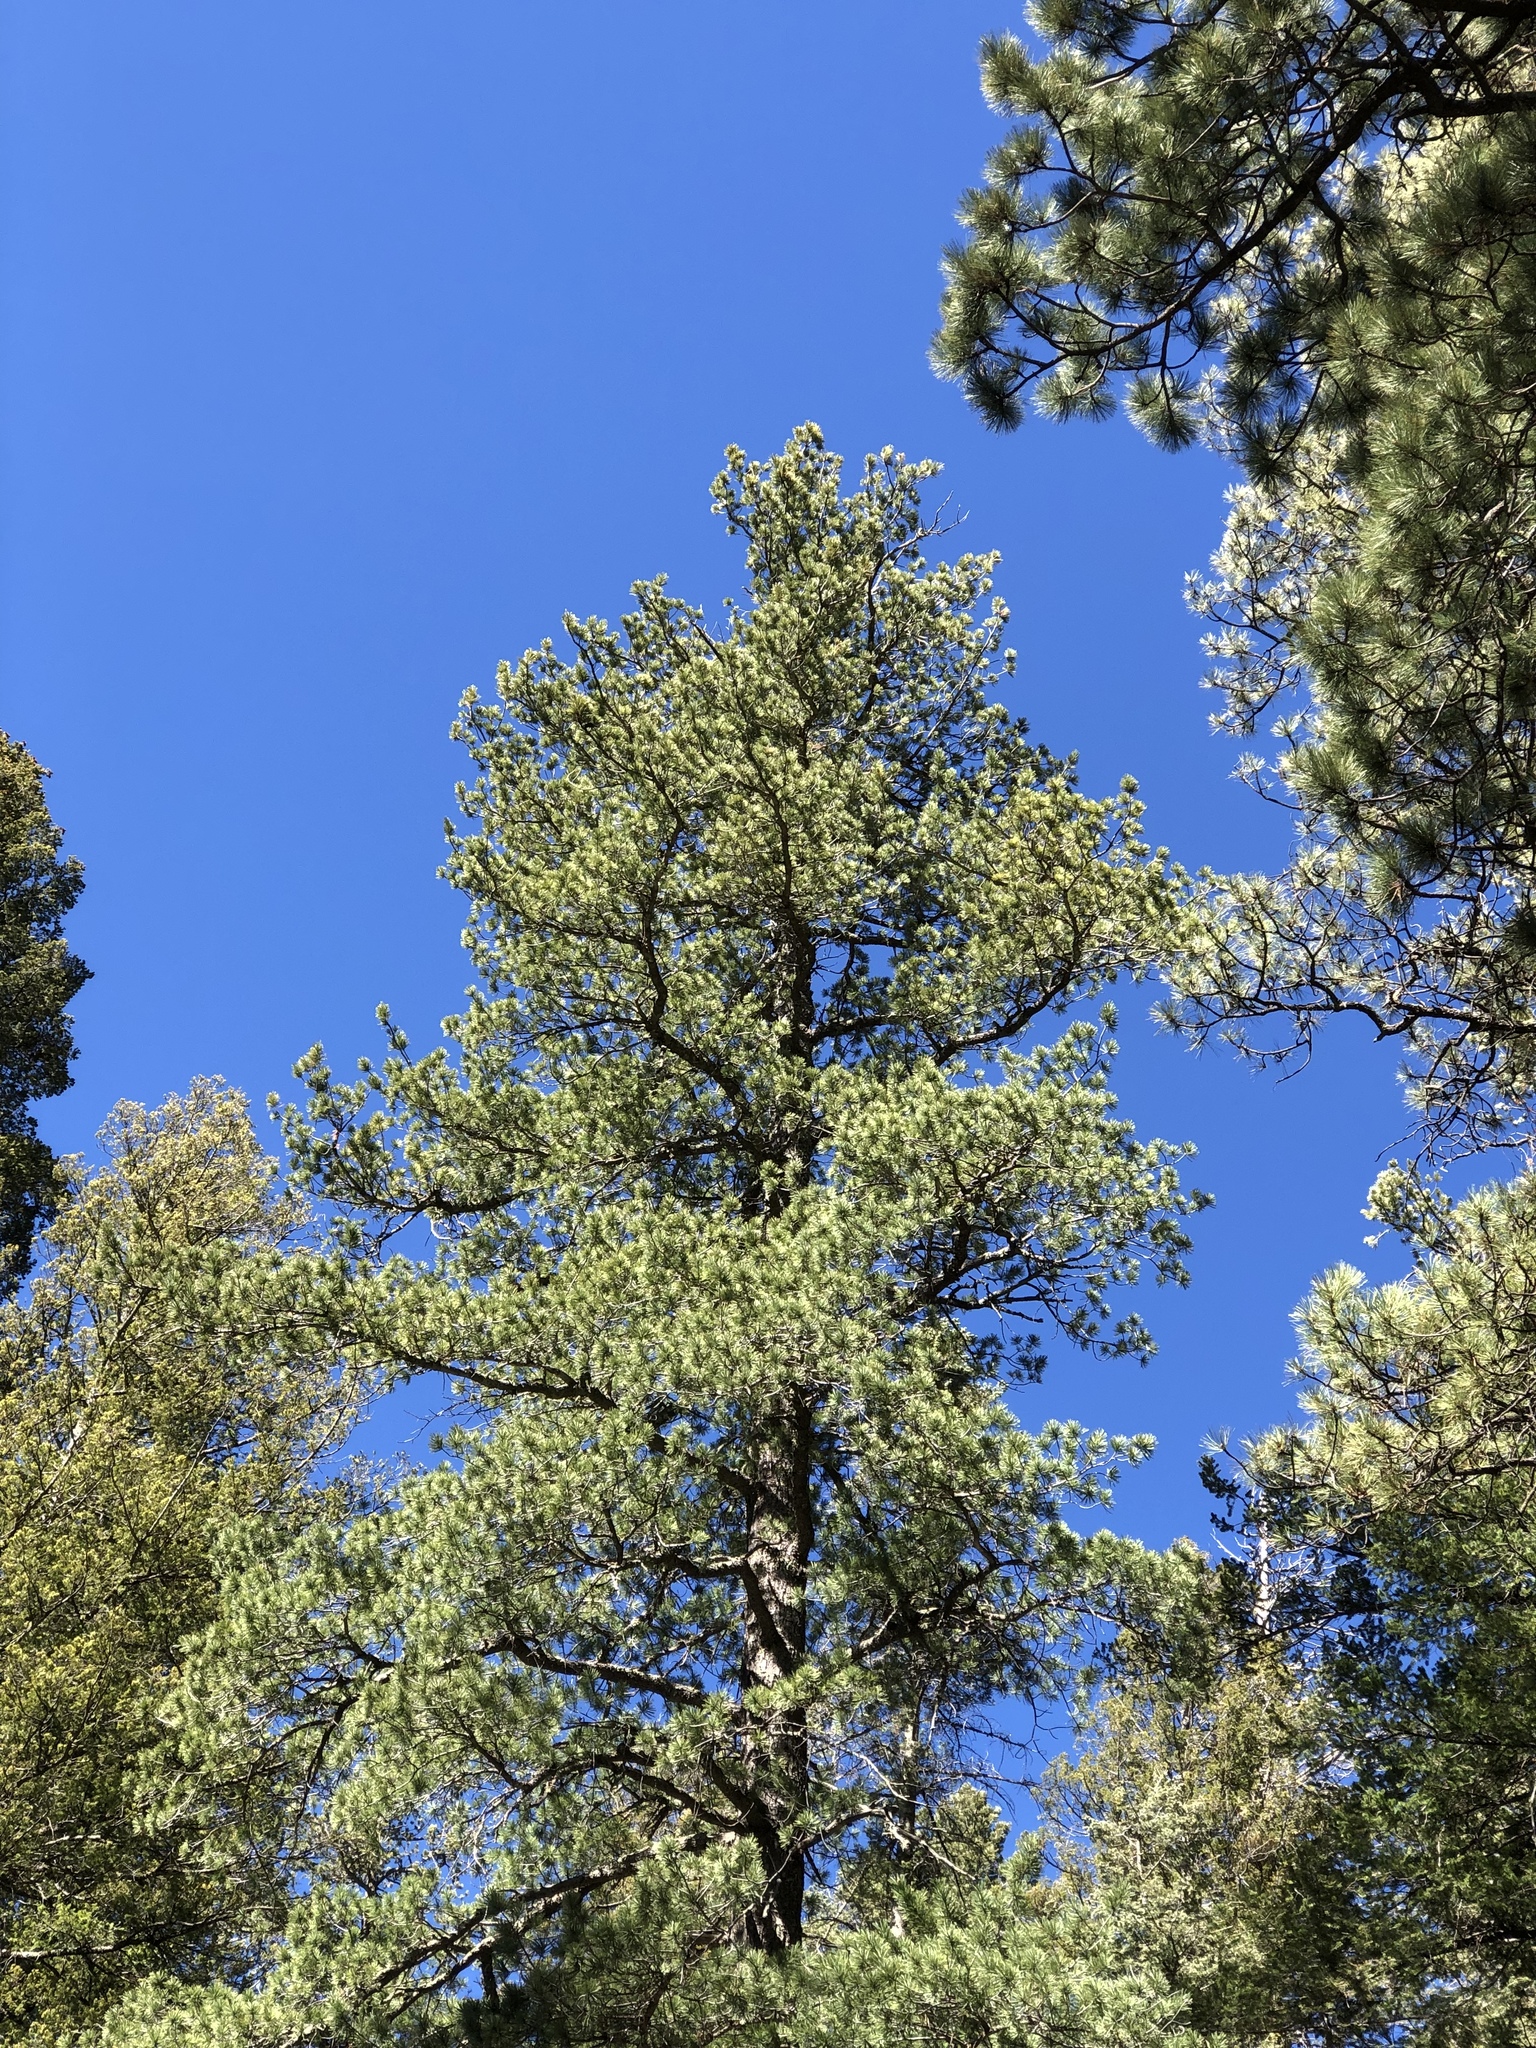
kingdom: Plantae
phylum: Tracheophyta
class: Pinopsida
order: Pinales
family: Pinaceae
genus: Pinus
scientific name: Pinus strobiformis
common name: Southwestern white pine
